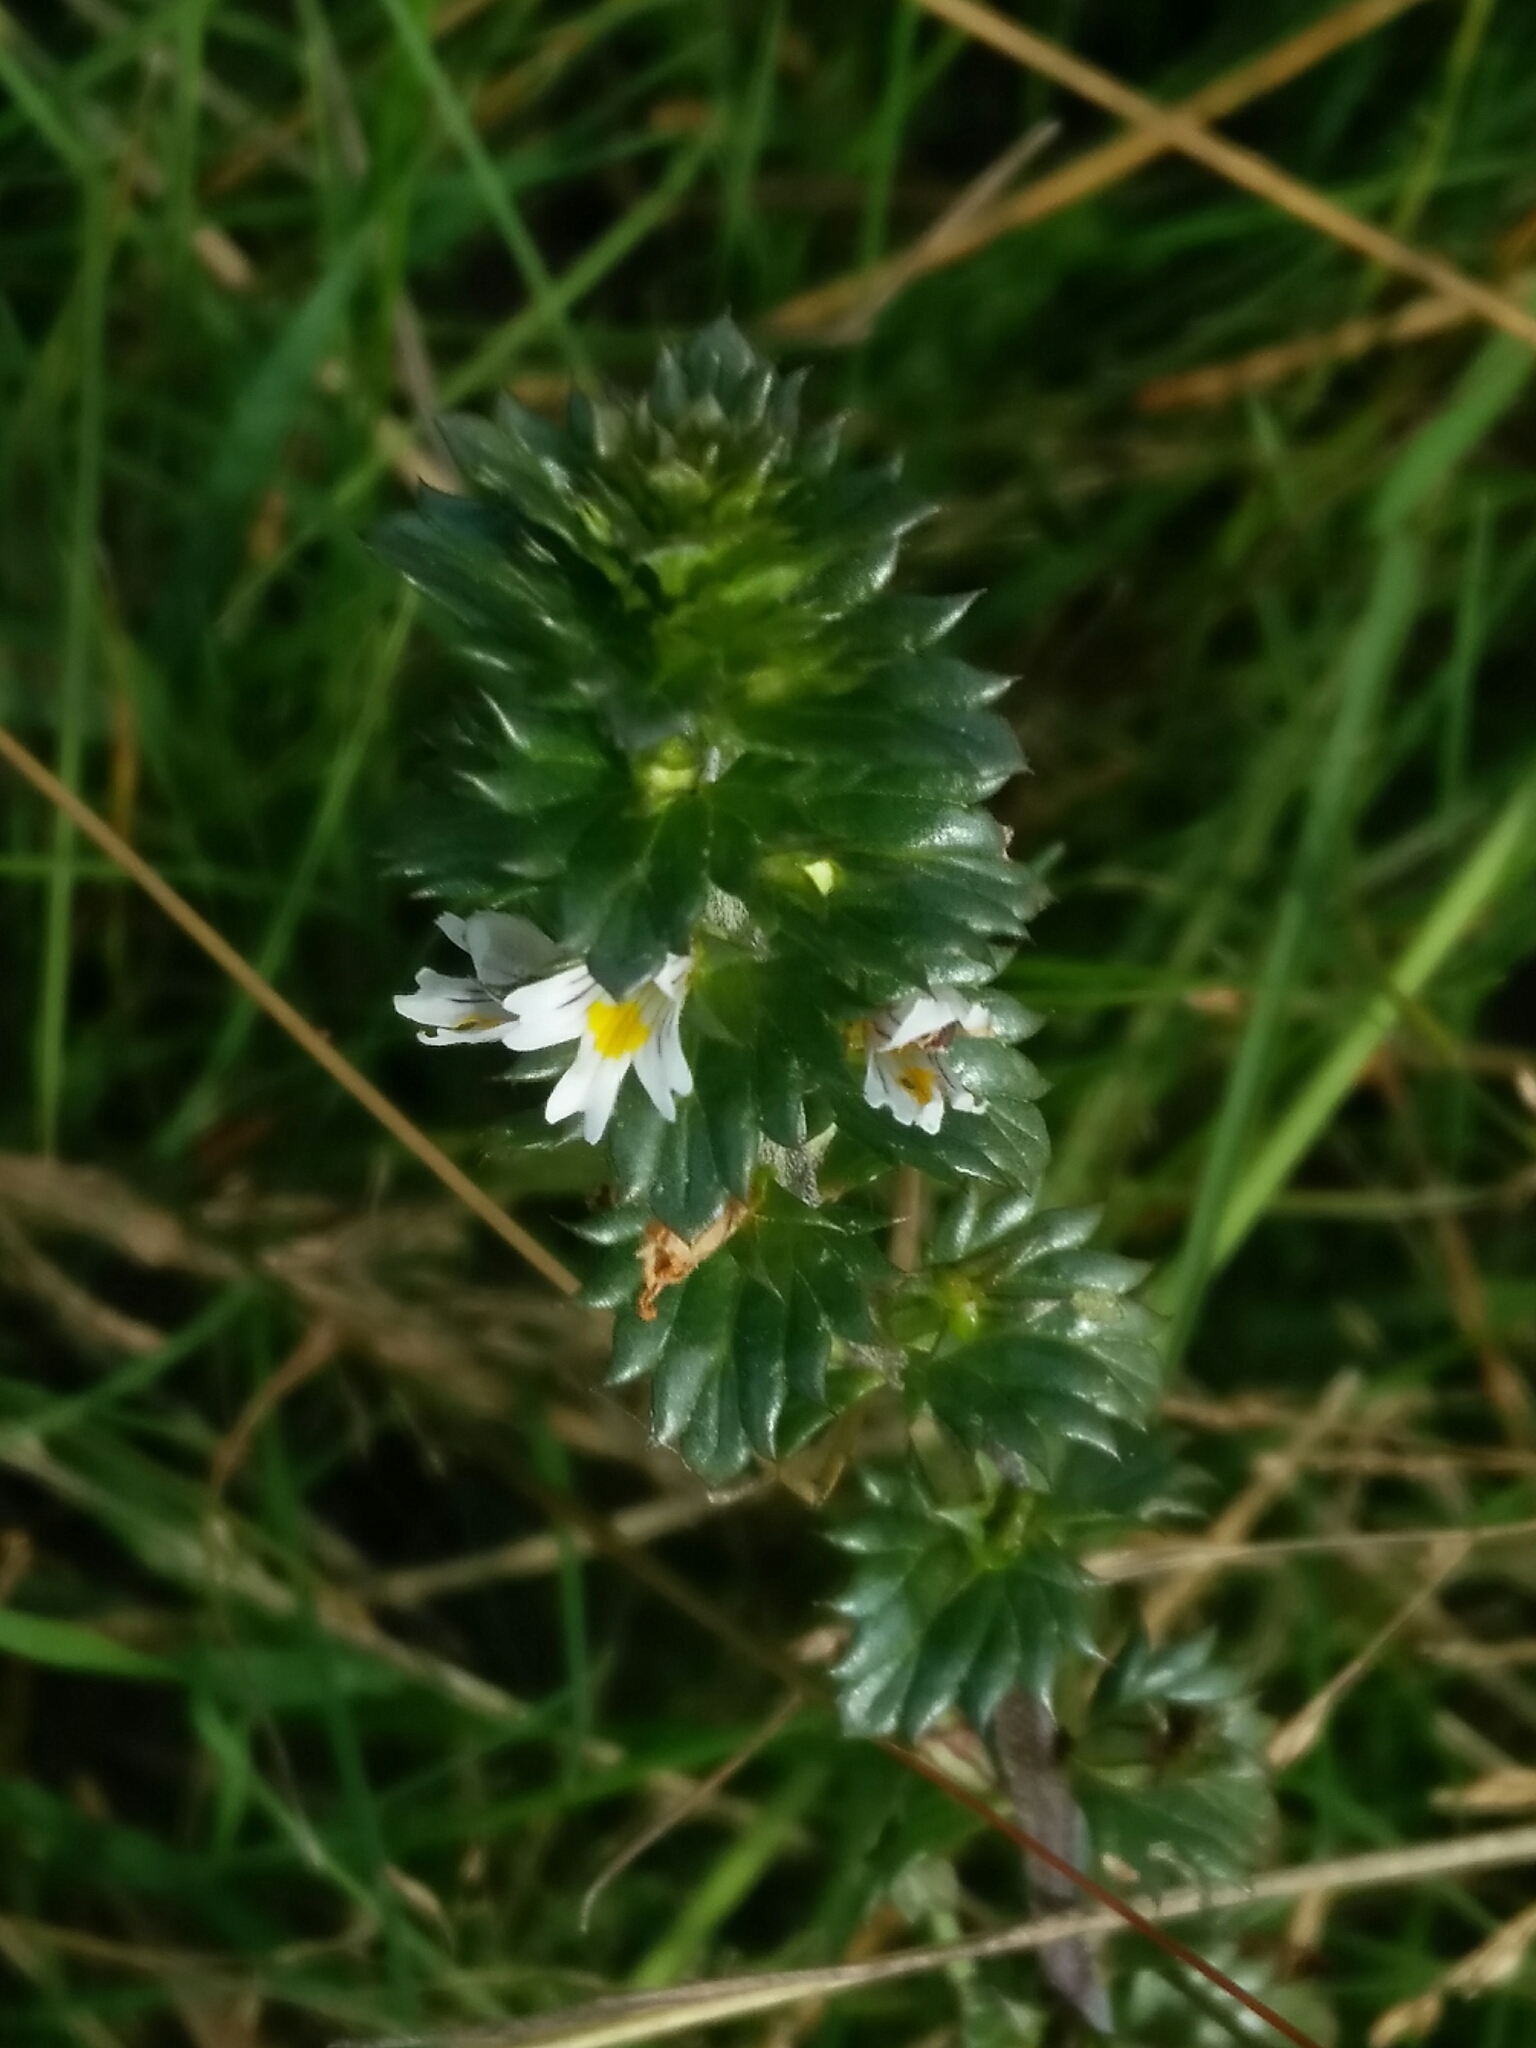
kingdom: Plantae
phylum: Tracheophyta
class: Magnoliopsida
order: Lamiales
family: Orobanchaceae
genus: Euphrasia
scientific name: Euphrasia stricta
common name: Drug eyebright
